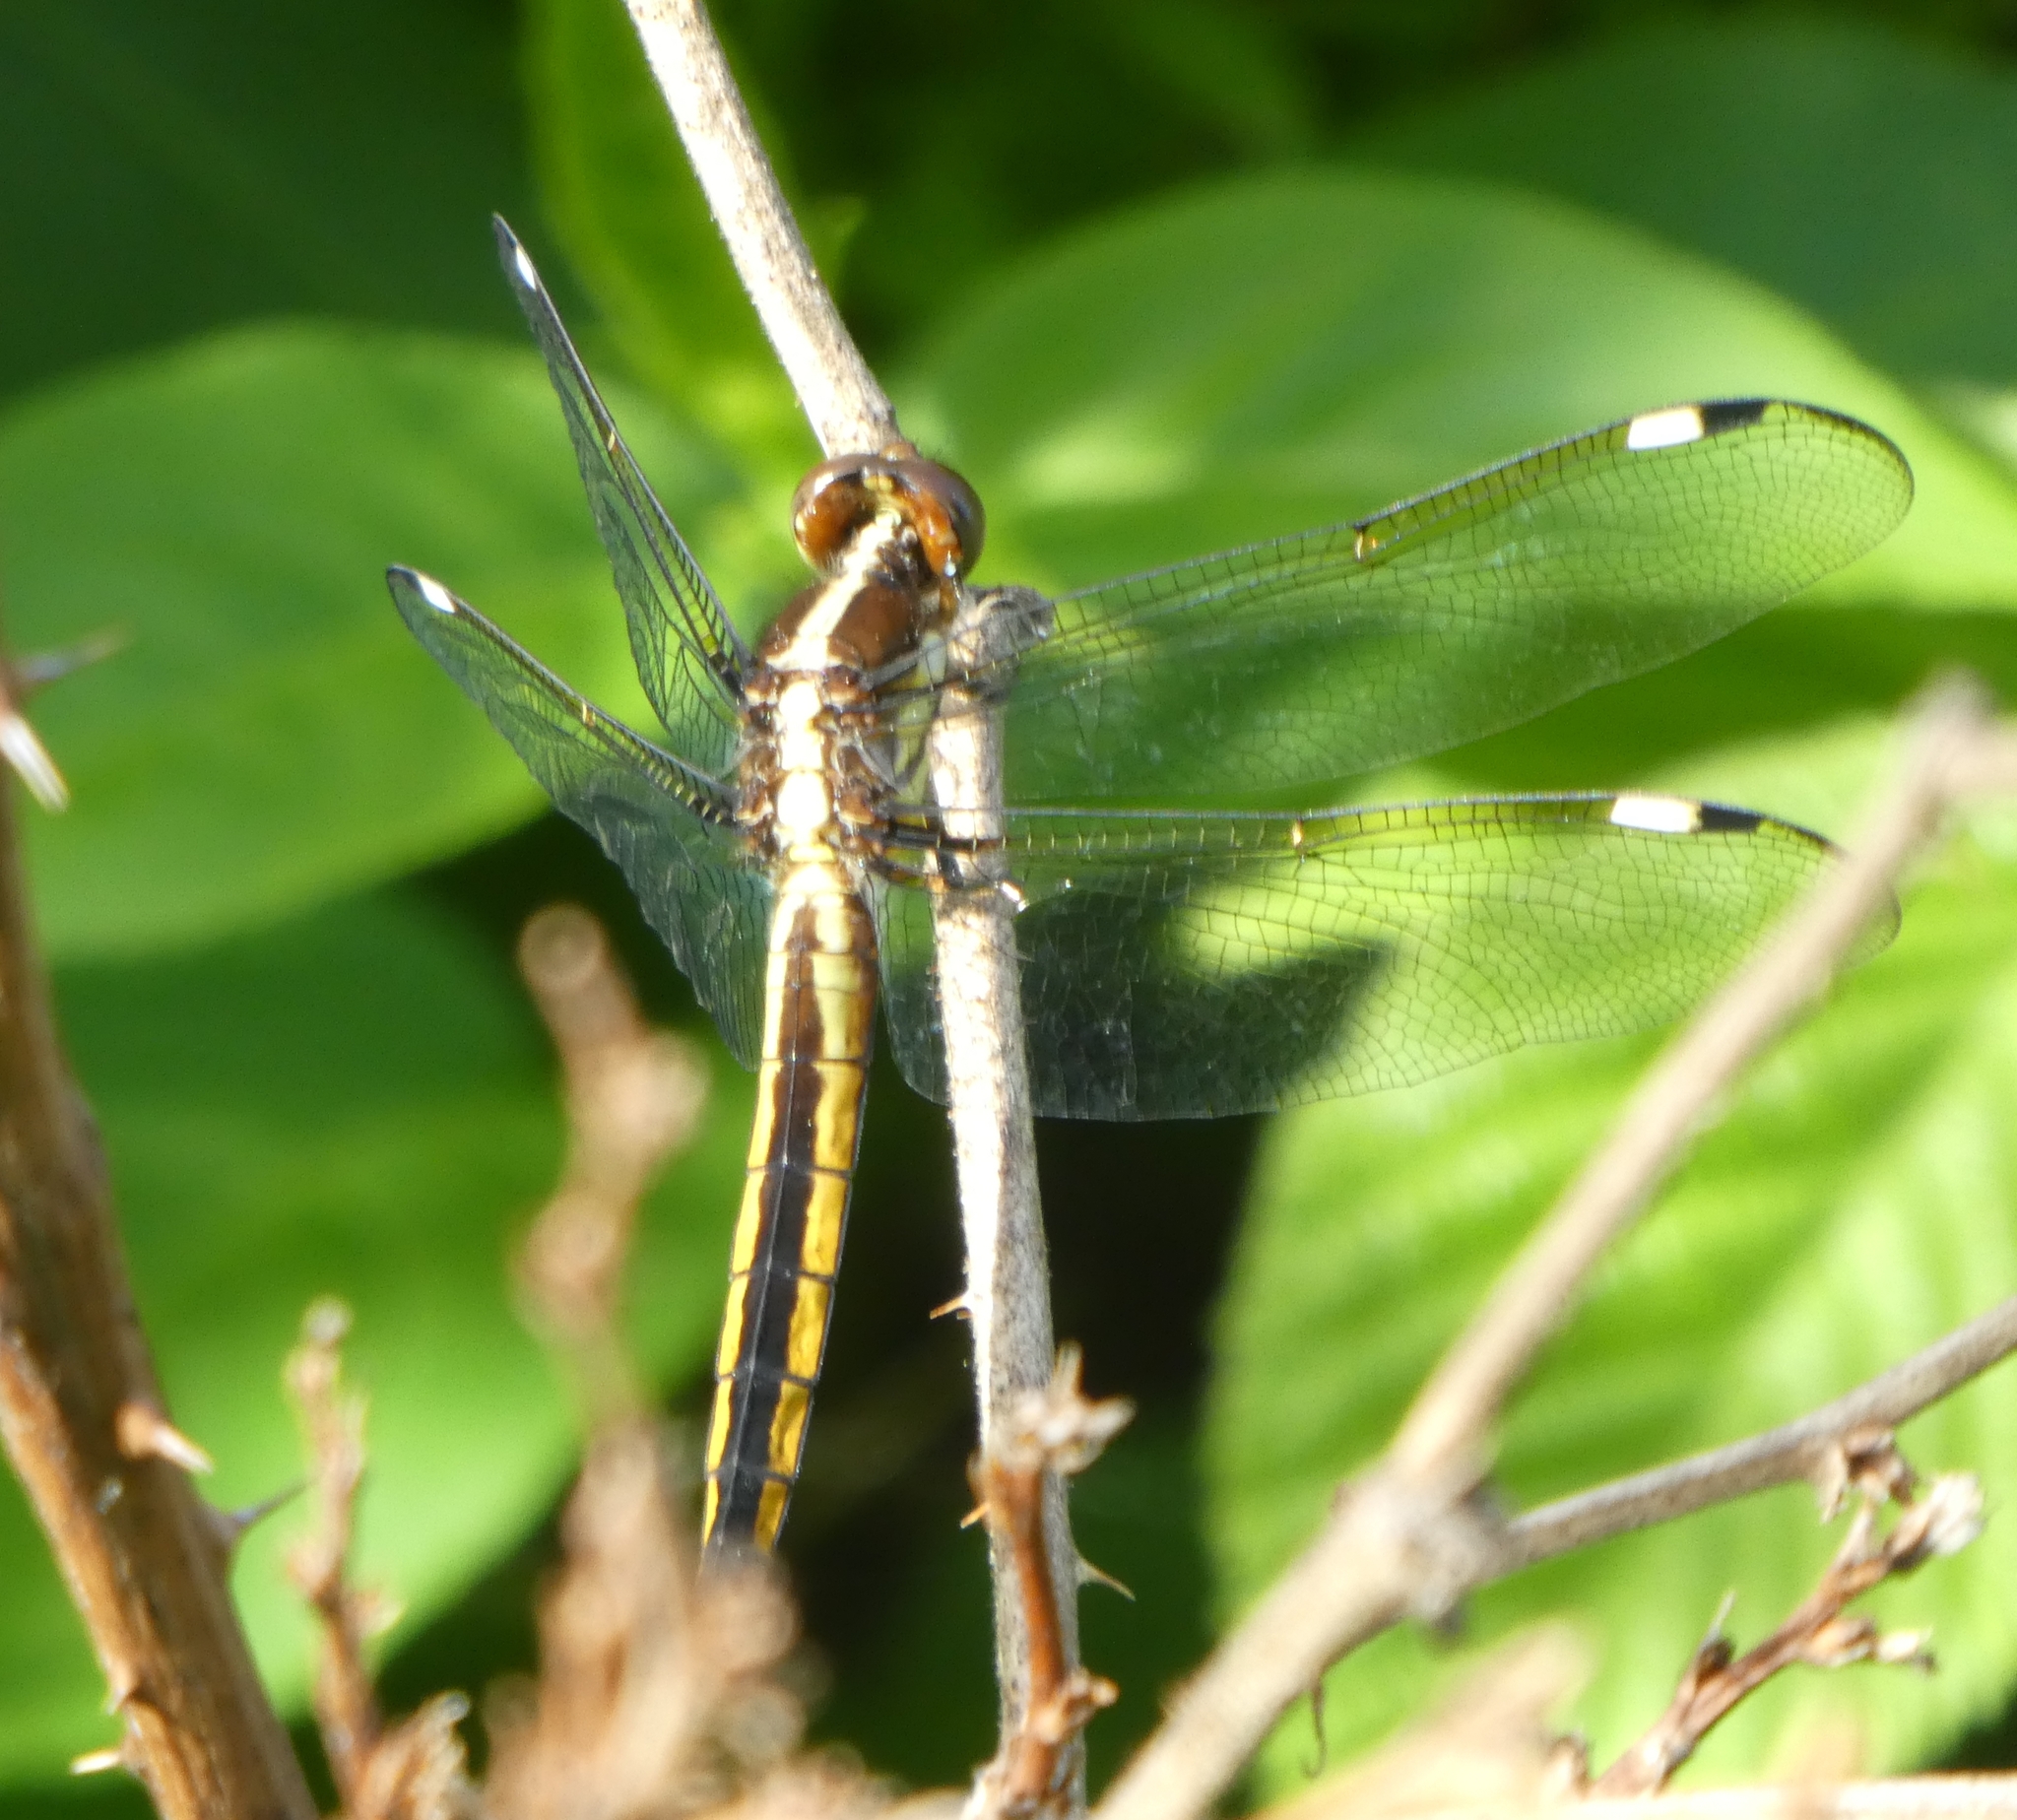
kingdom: Animalia
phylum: Arthropoda
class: Insecta
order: Odonata
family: Libellulidae
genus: Libellula
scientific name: Libellula cyanea
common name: Spangled skimmer
